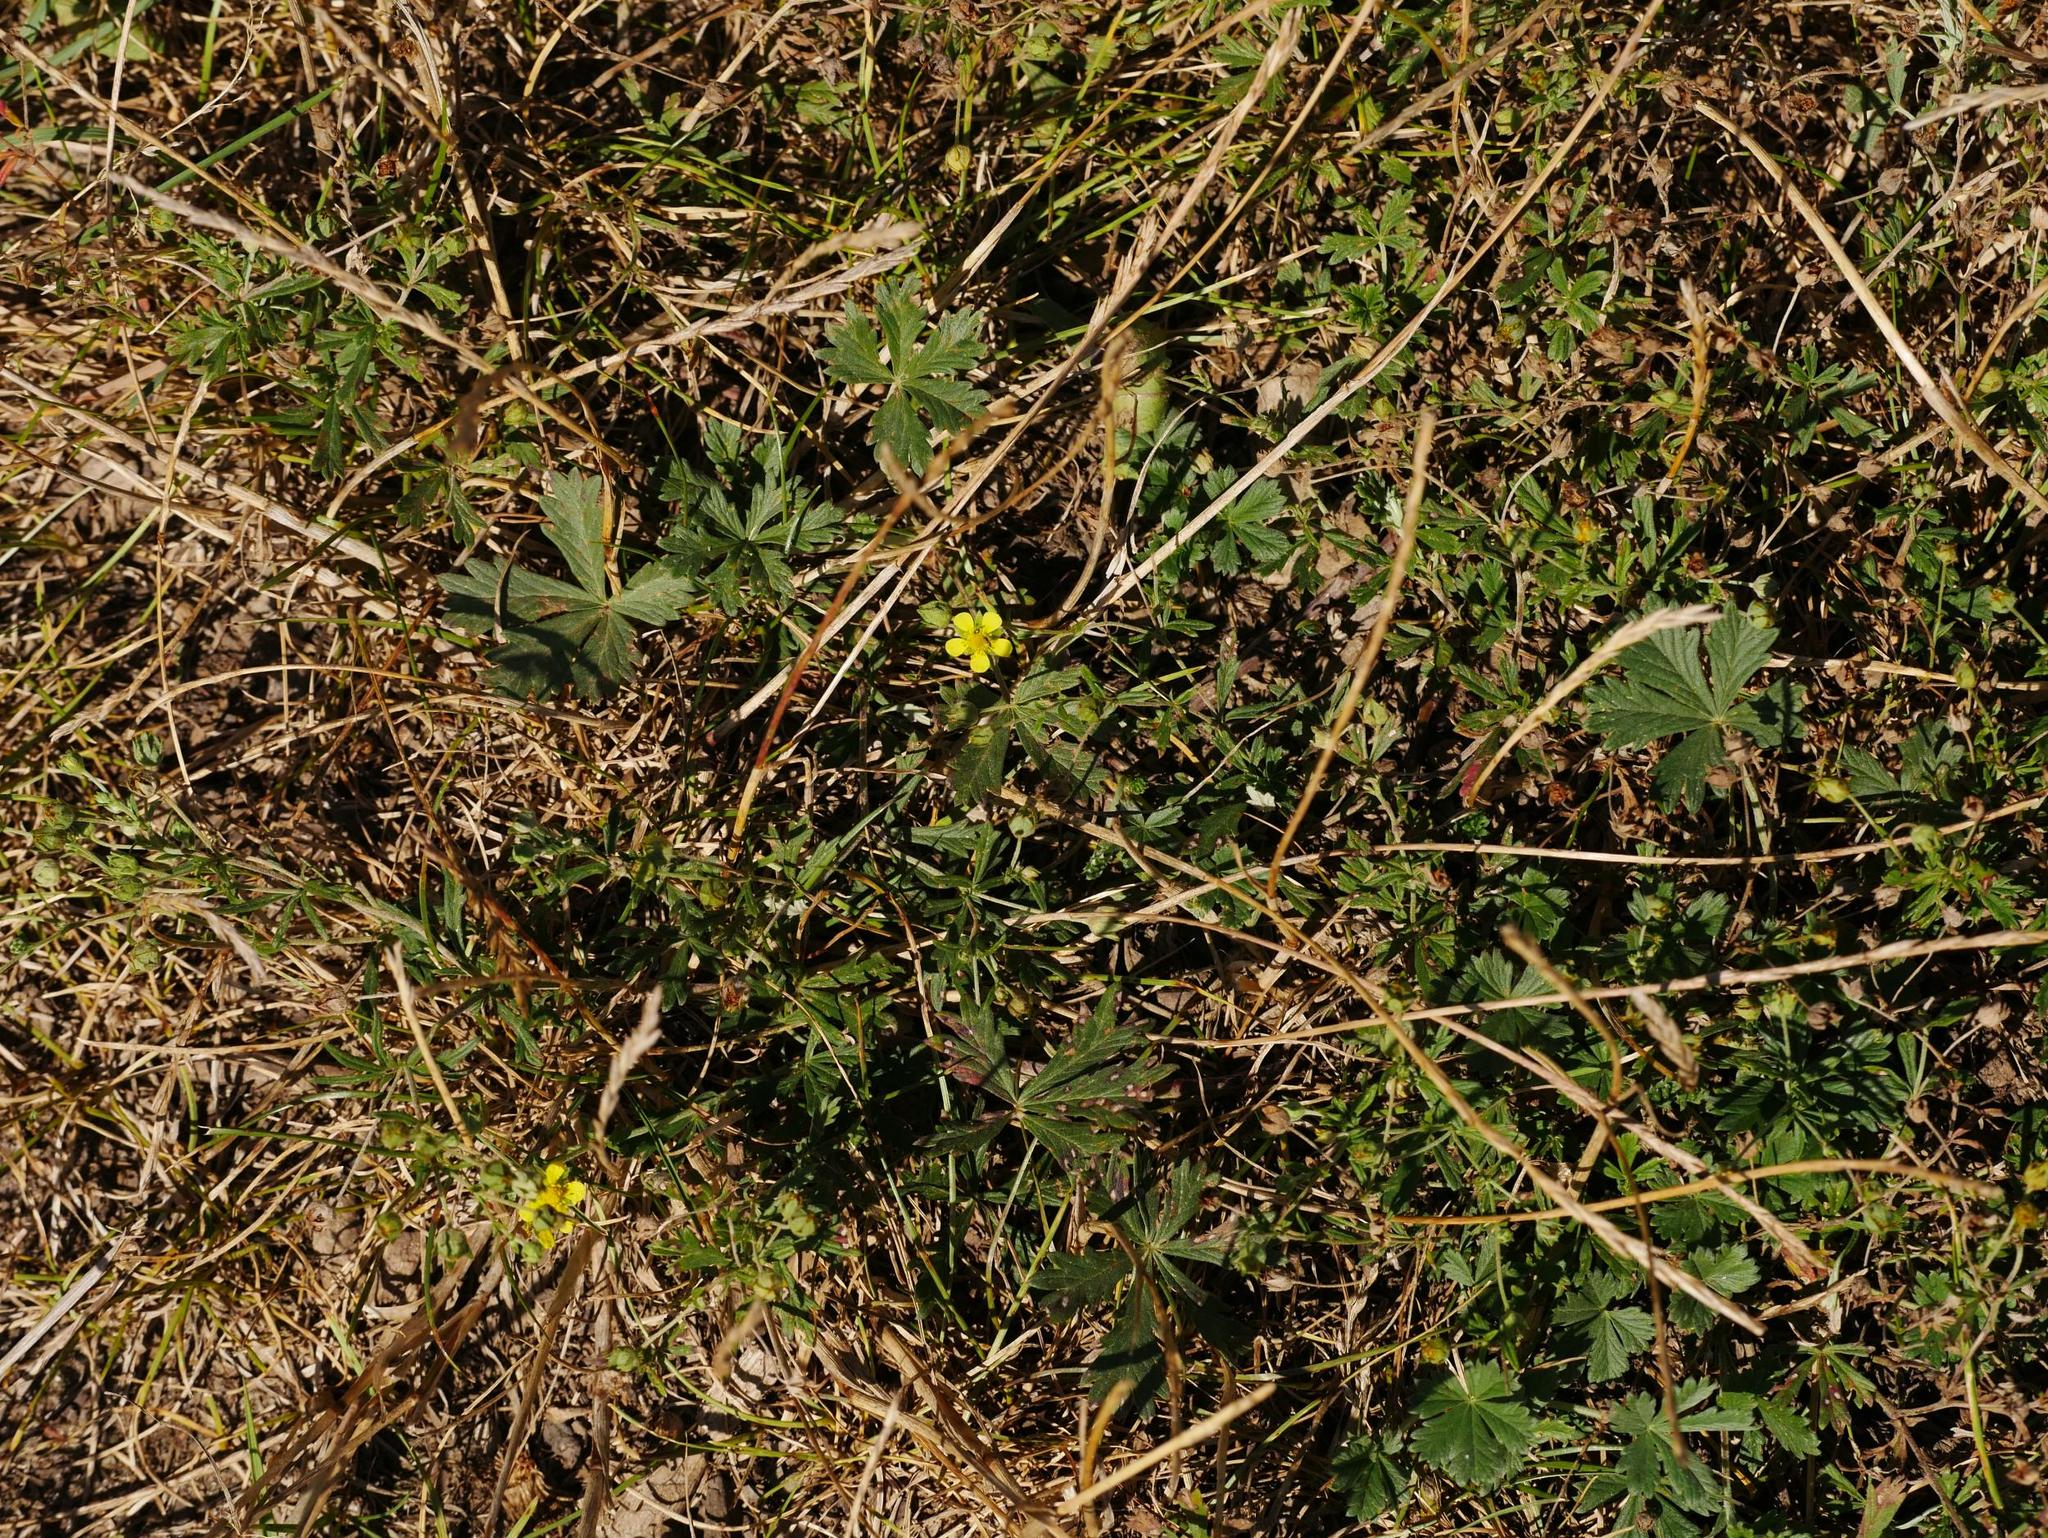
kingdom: Plantae
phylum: Tracheophyta
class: Magnoliopsida
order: Rosales
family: Rosaceae
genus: Potentilla
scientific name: Potentilla argentea
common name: Hoary cinquefoil
